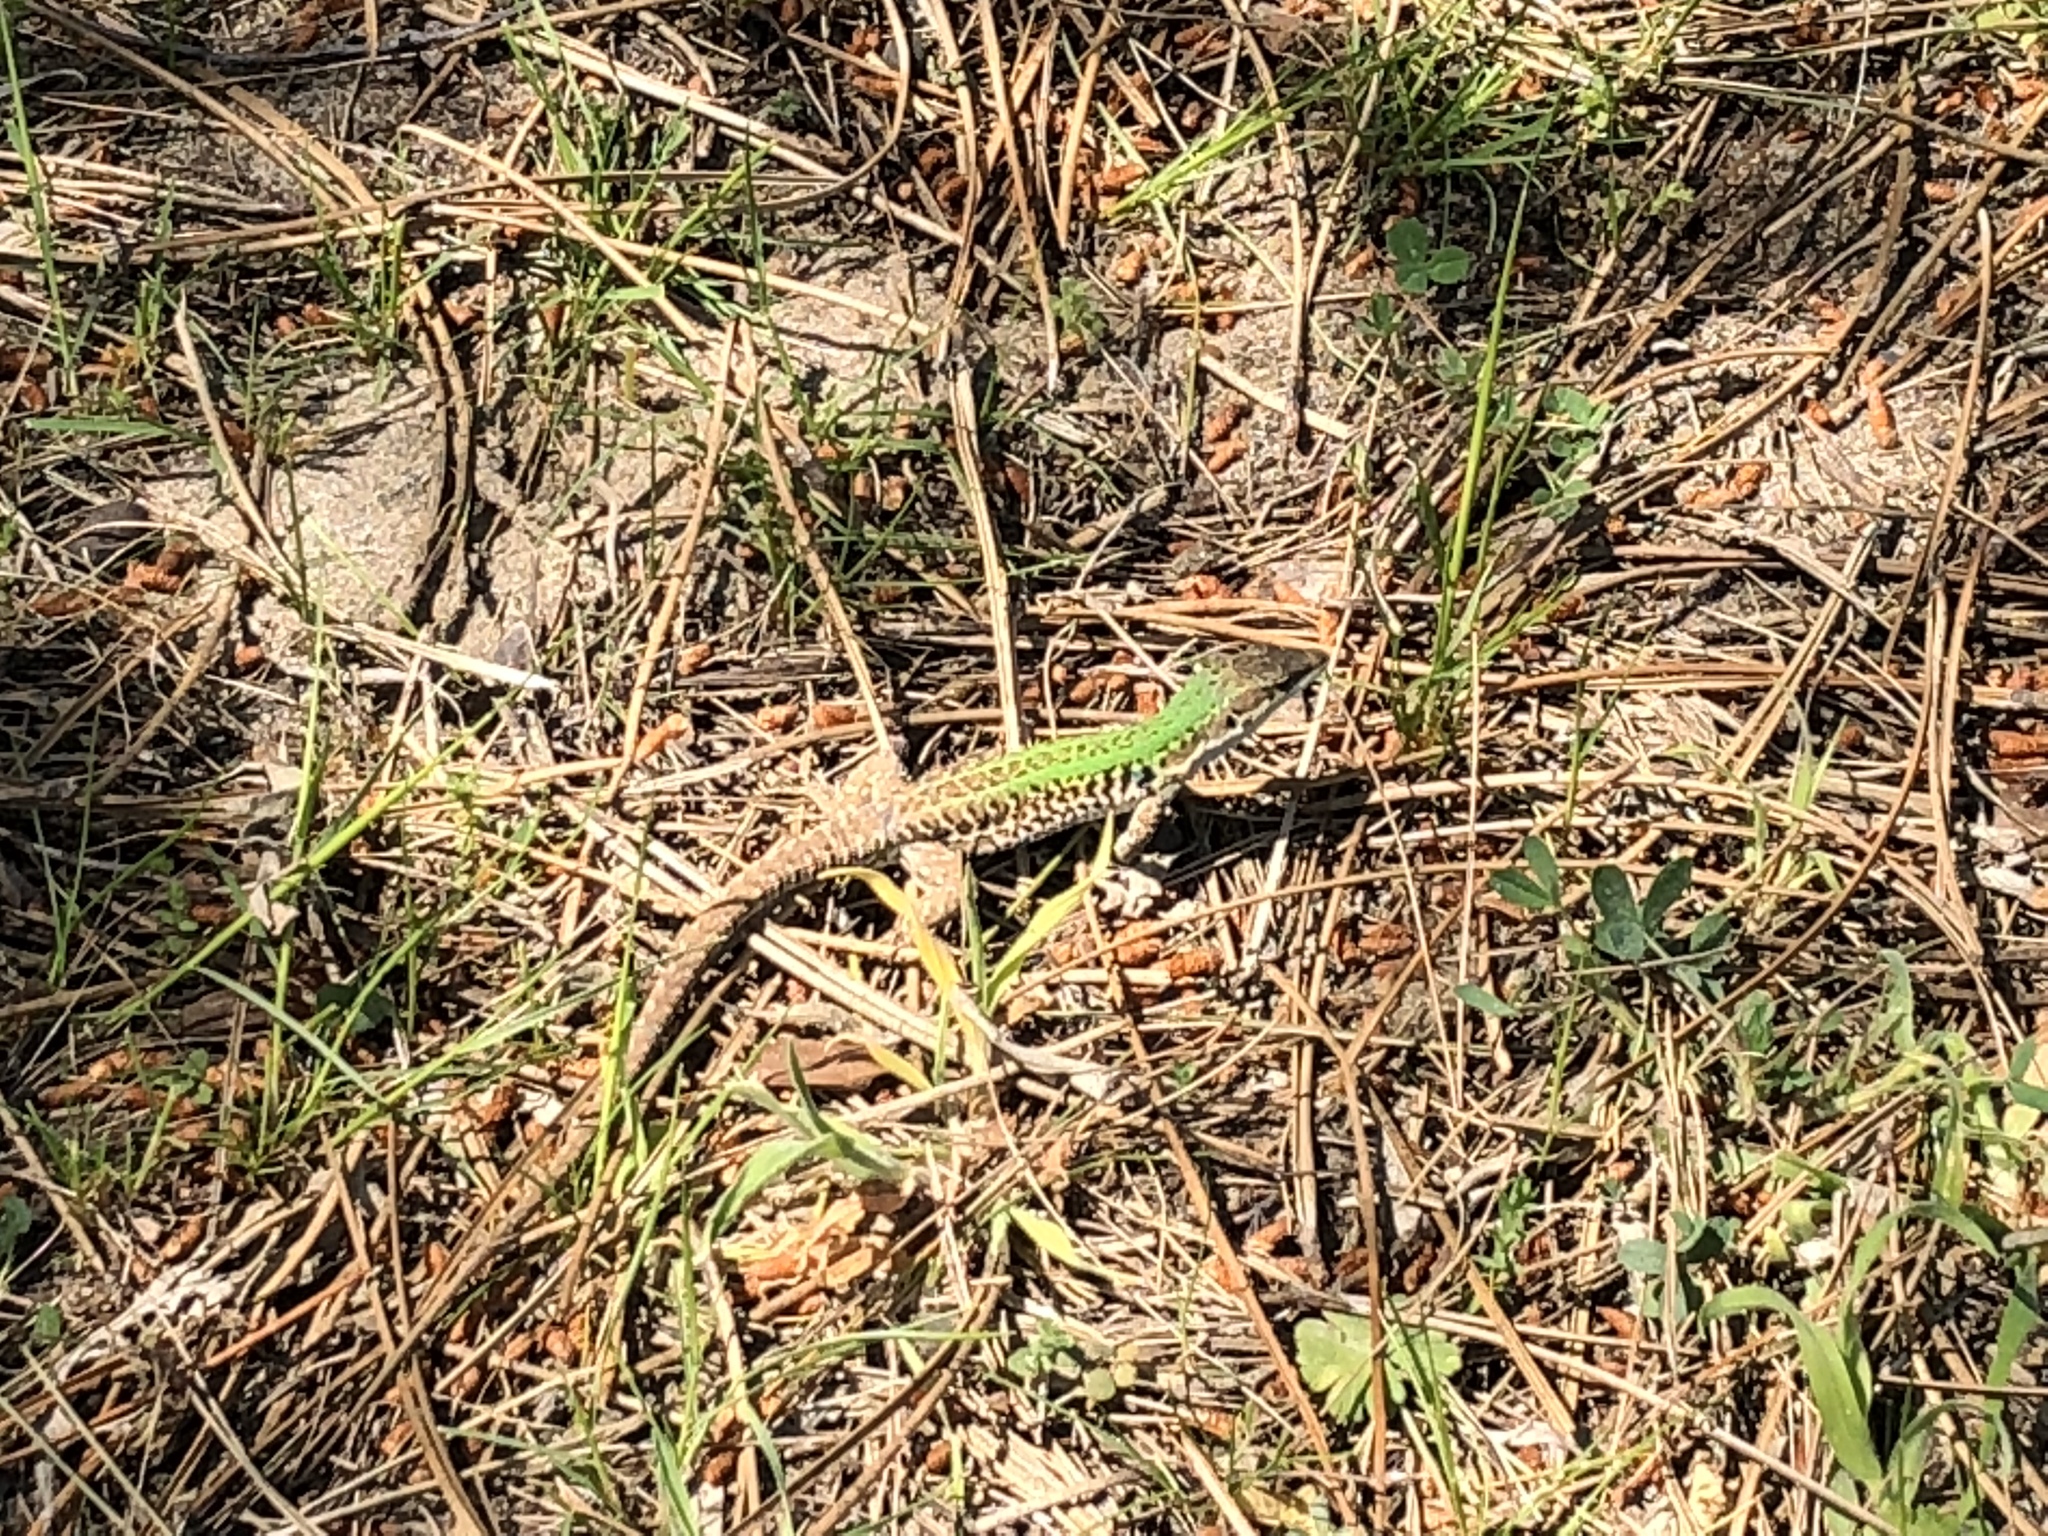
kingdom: Animalia
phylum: Chordata
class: Squamata
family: Lacertidae
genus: Podarcis
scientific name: Podarcis siculus
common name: Italian wall lizard
